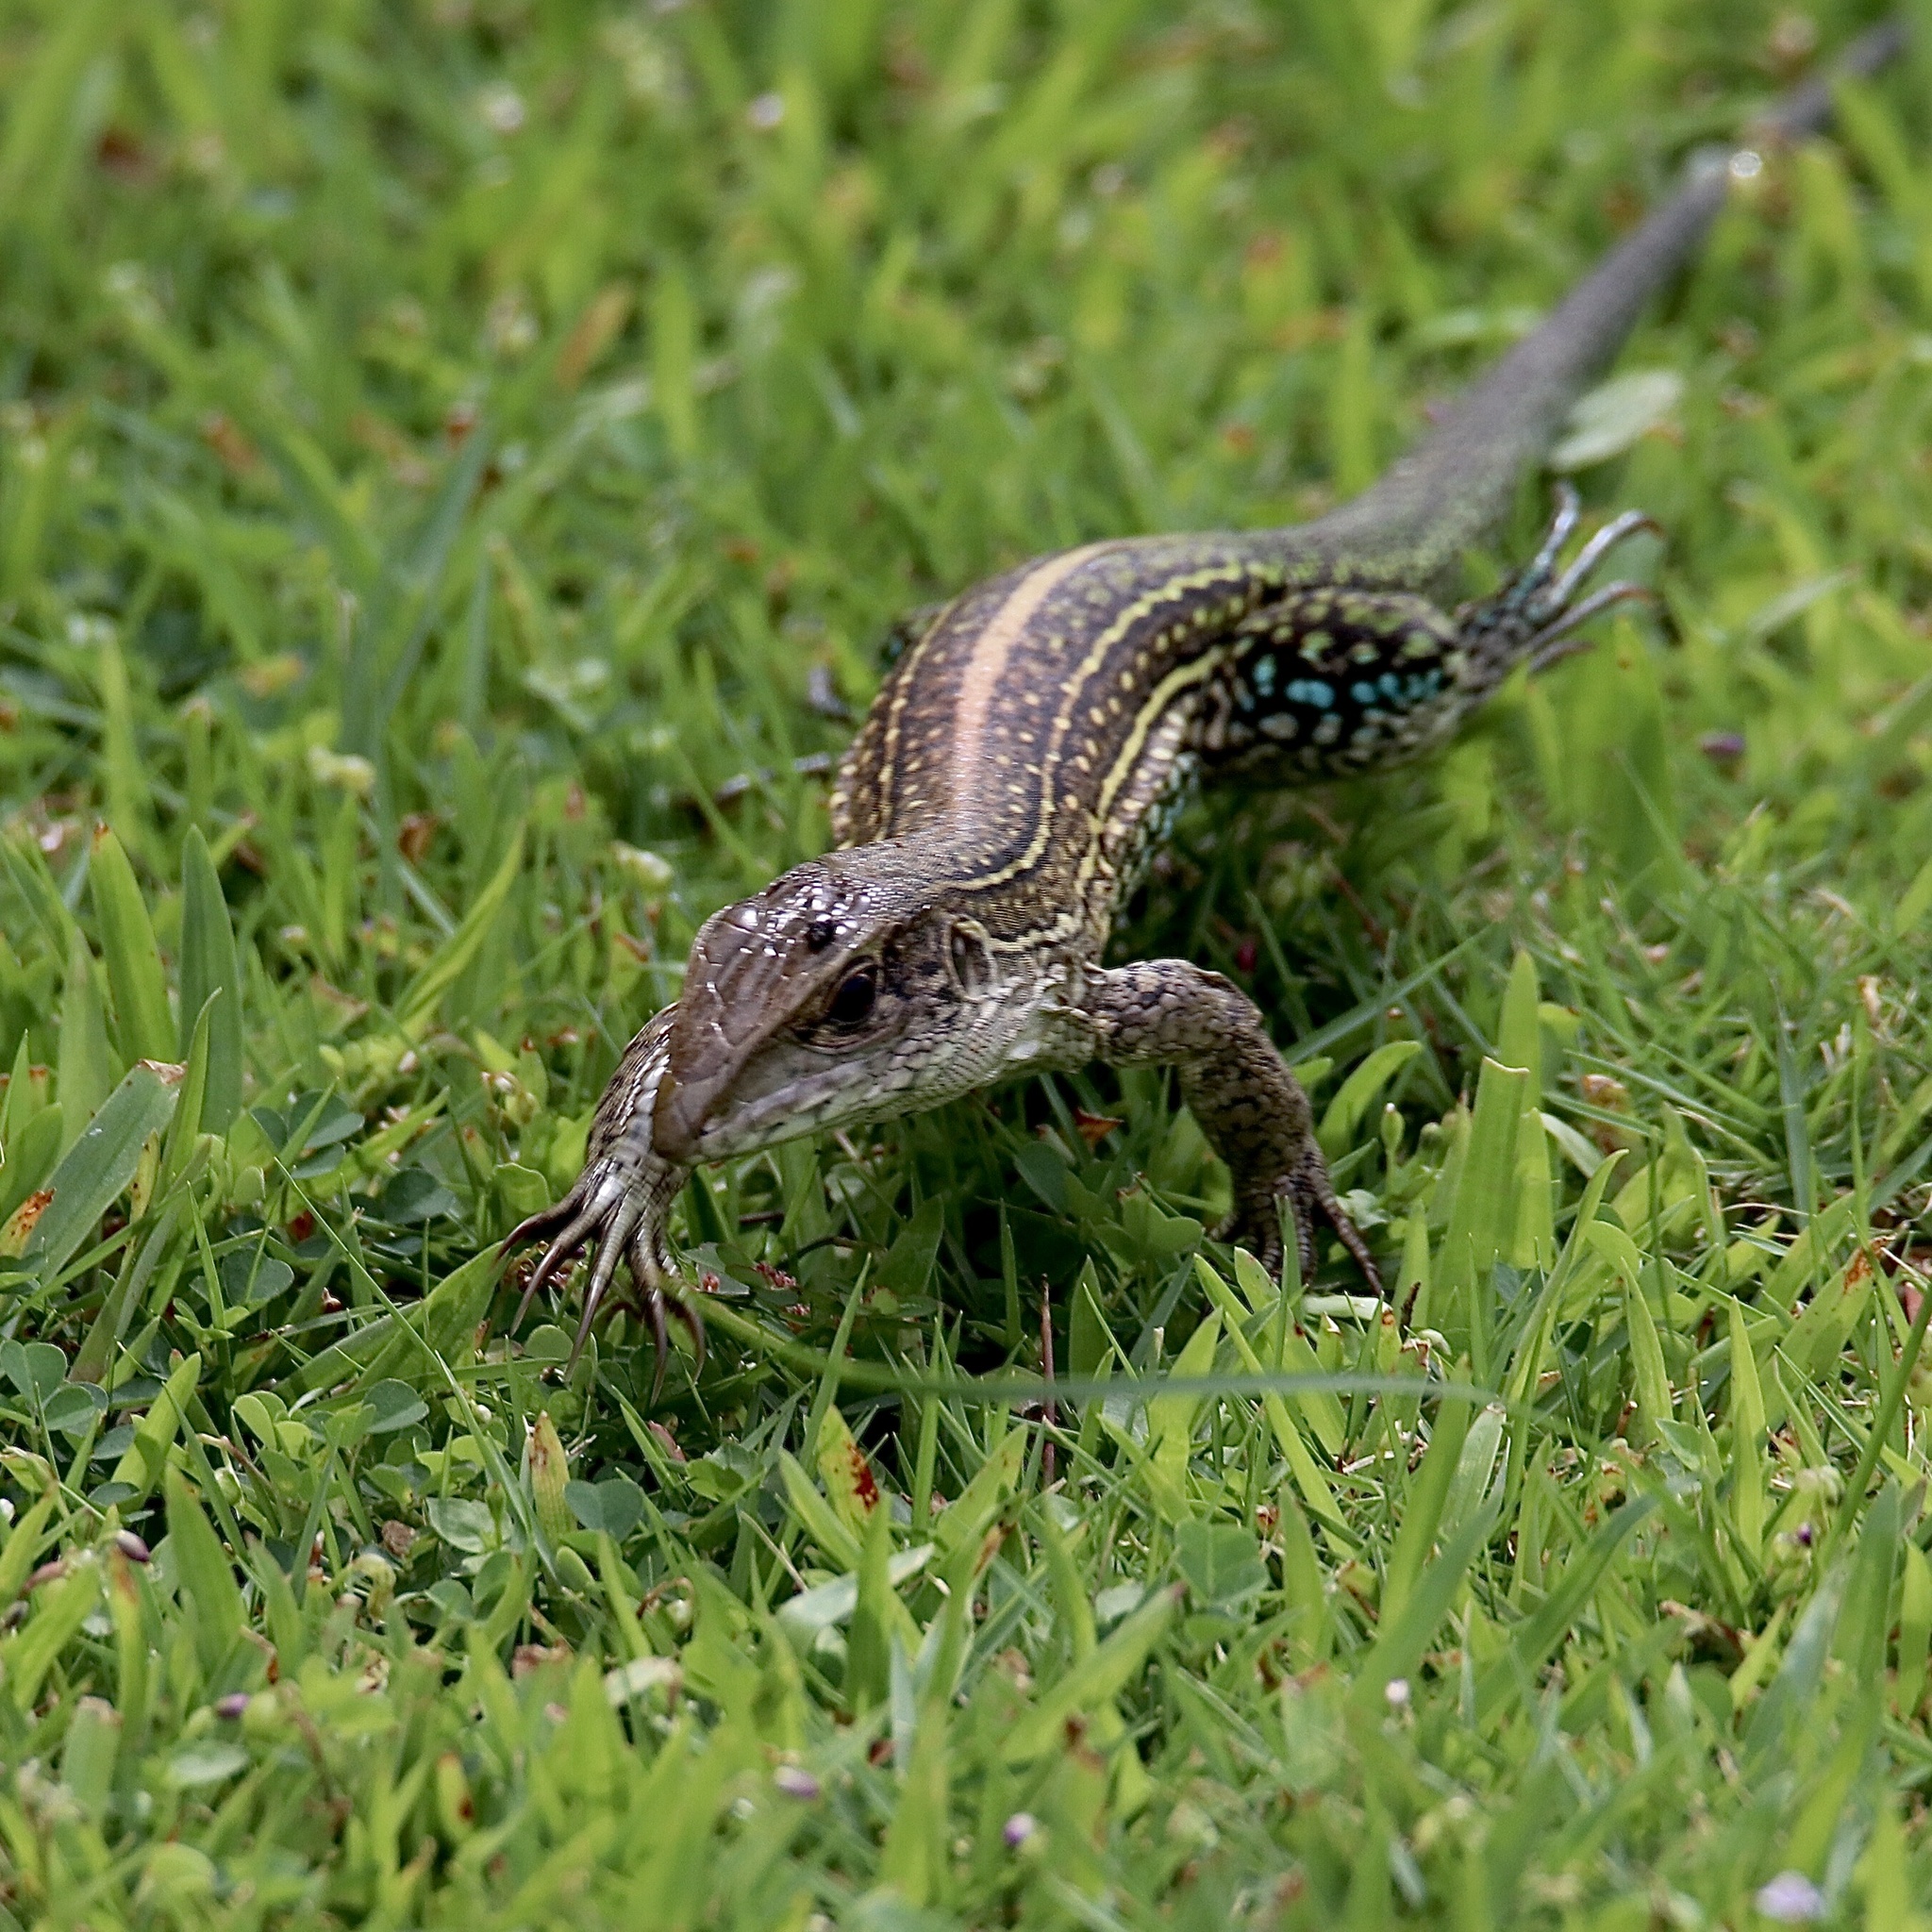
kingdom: Animalia
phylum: Chordata
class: Squamata
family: Teiidae
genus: Ameiva
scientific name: Ameiva praesignis
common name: Giant ameiva
